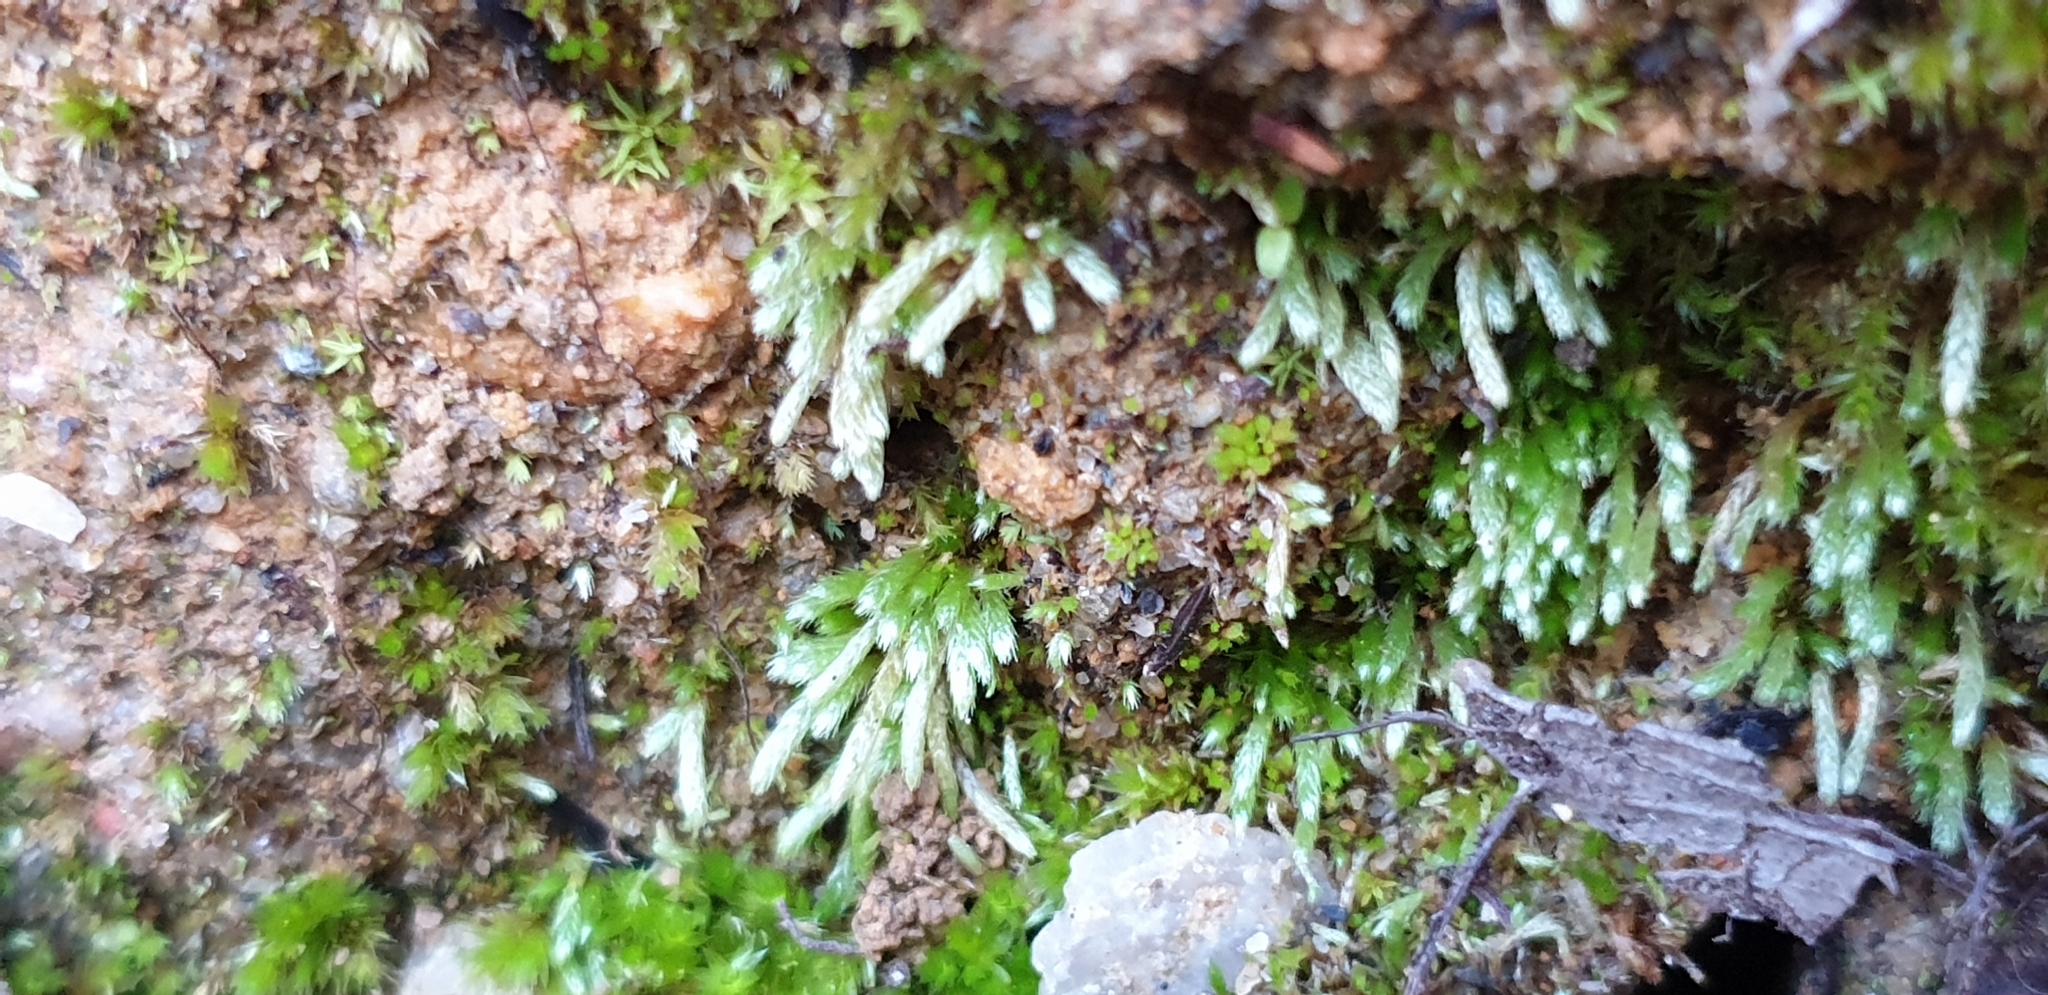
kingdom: Plantae
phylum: Bryophyta
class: Bryopsida
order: Bryales
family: Bryaceae
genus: Bryum
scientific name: Bryum argenteum
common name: Silver-moss
